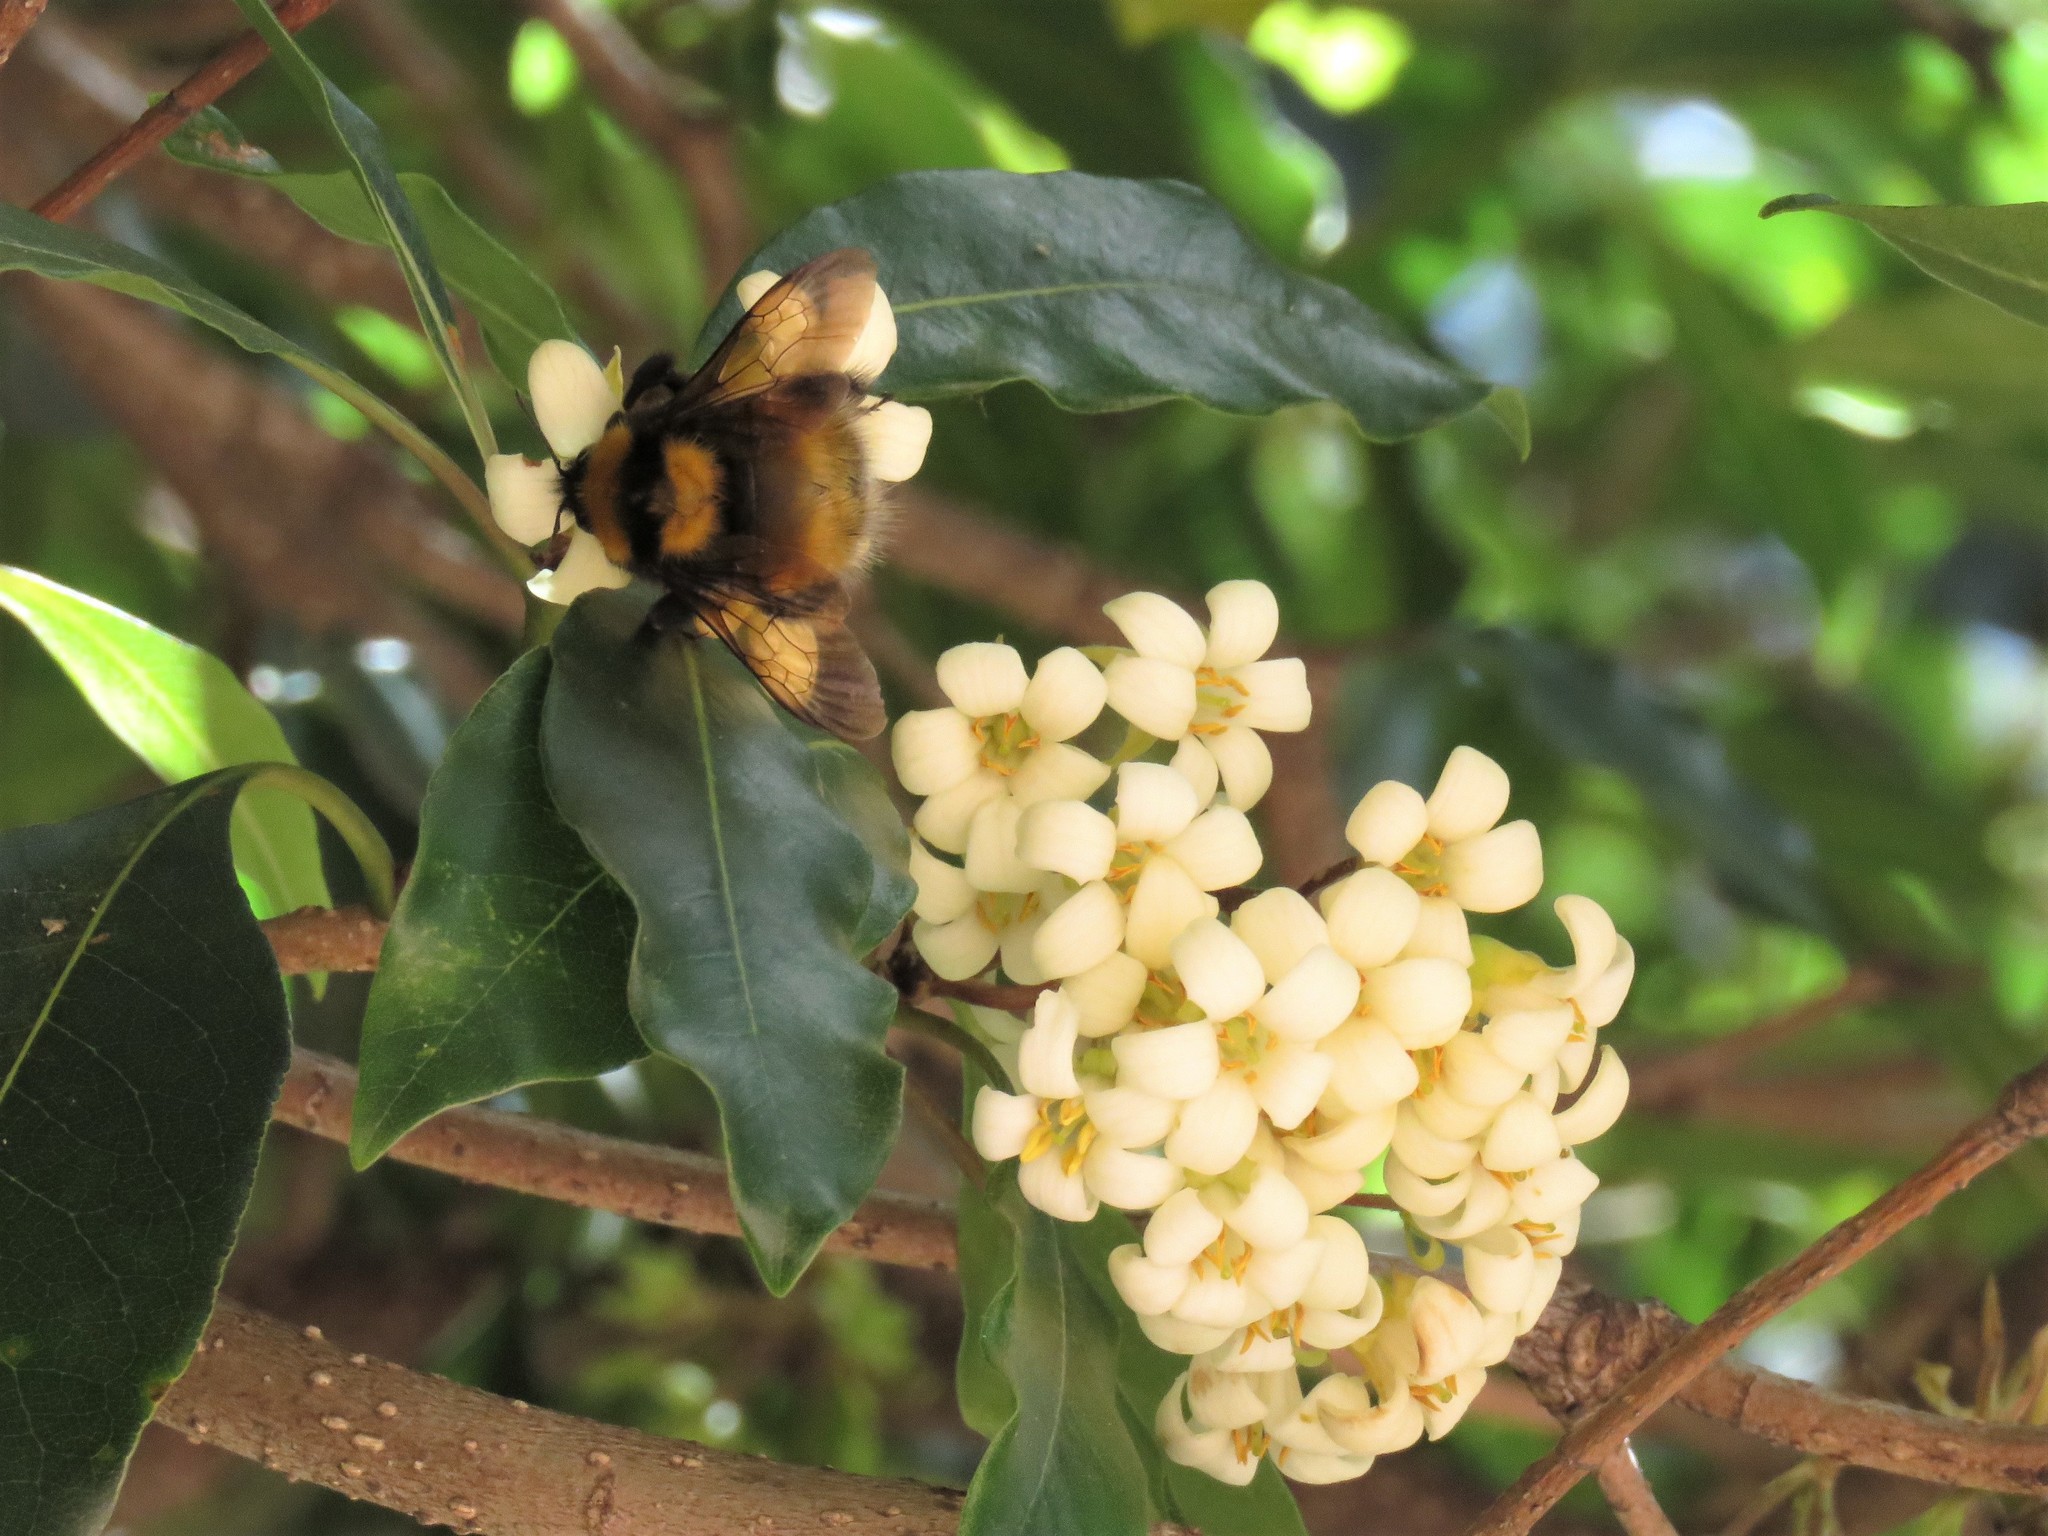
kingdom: Animalia
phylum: Arthropoda
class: Insecta
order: Hymenoptera
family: Apidae
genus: Bombus
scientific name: Bombus hortulanus
